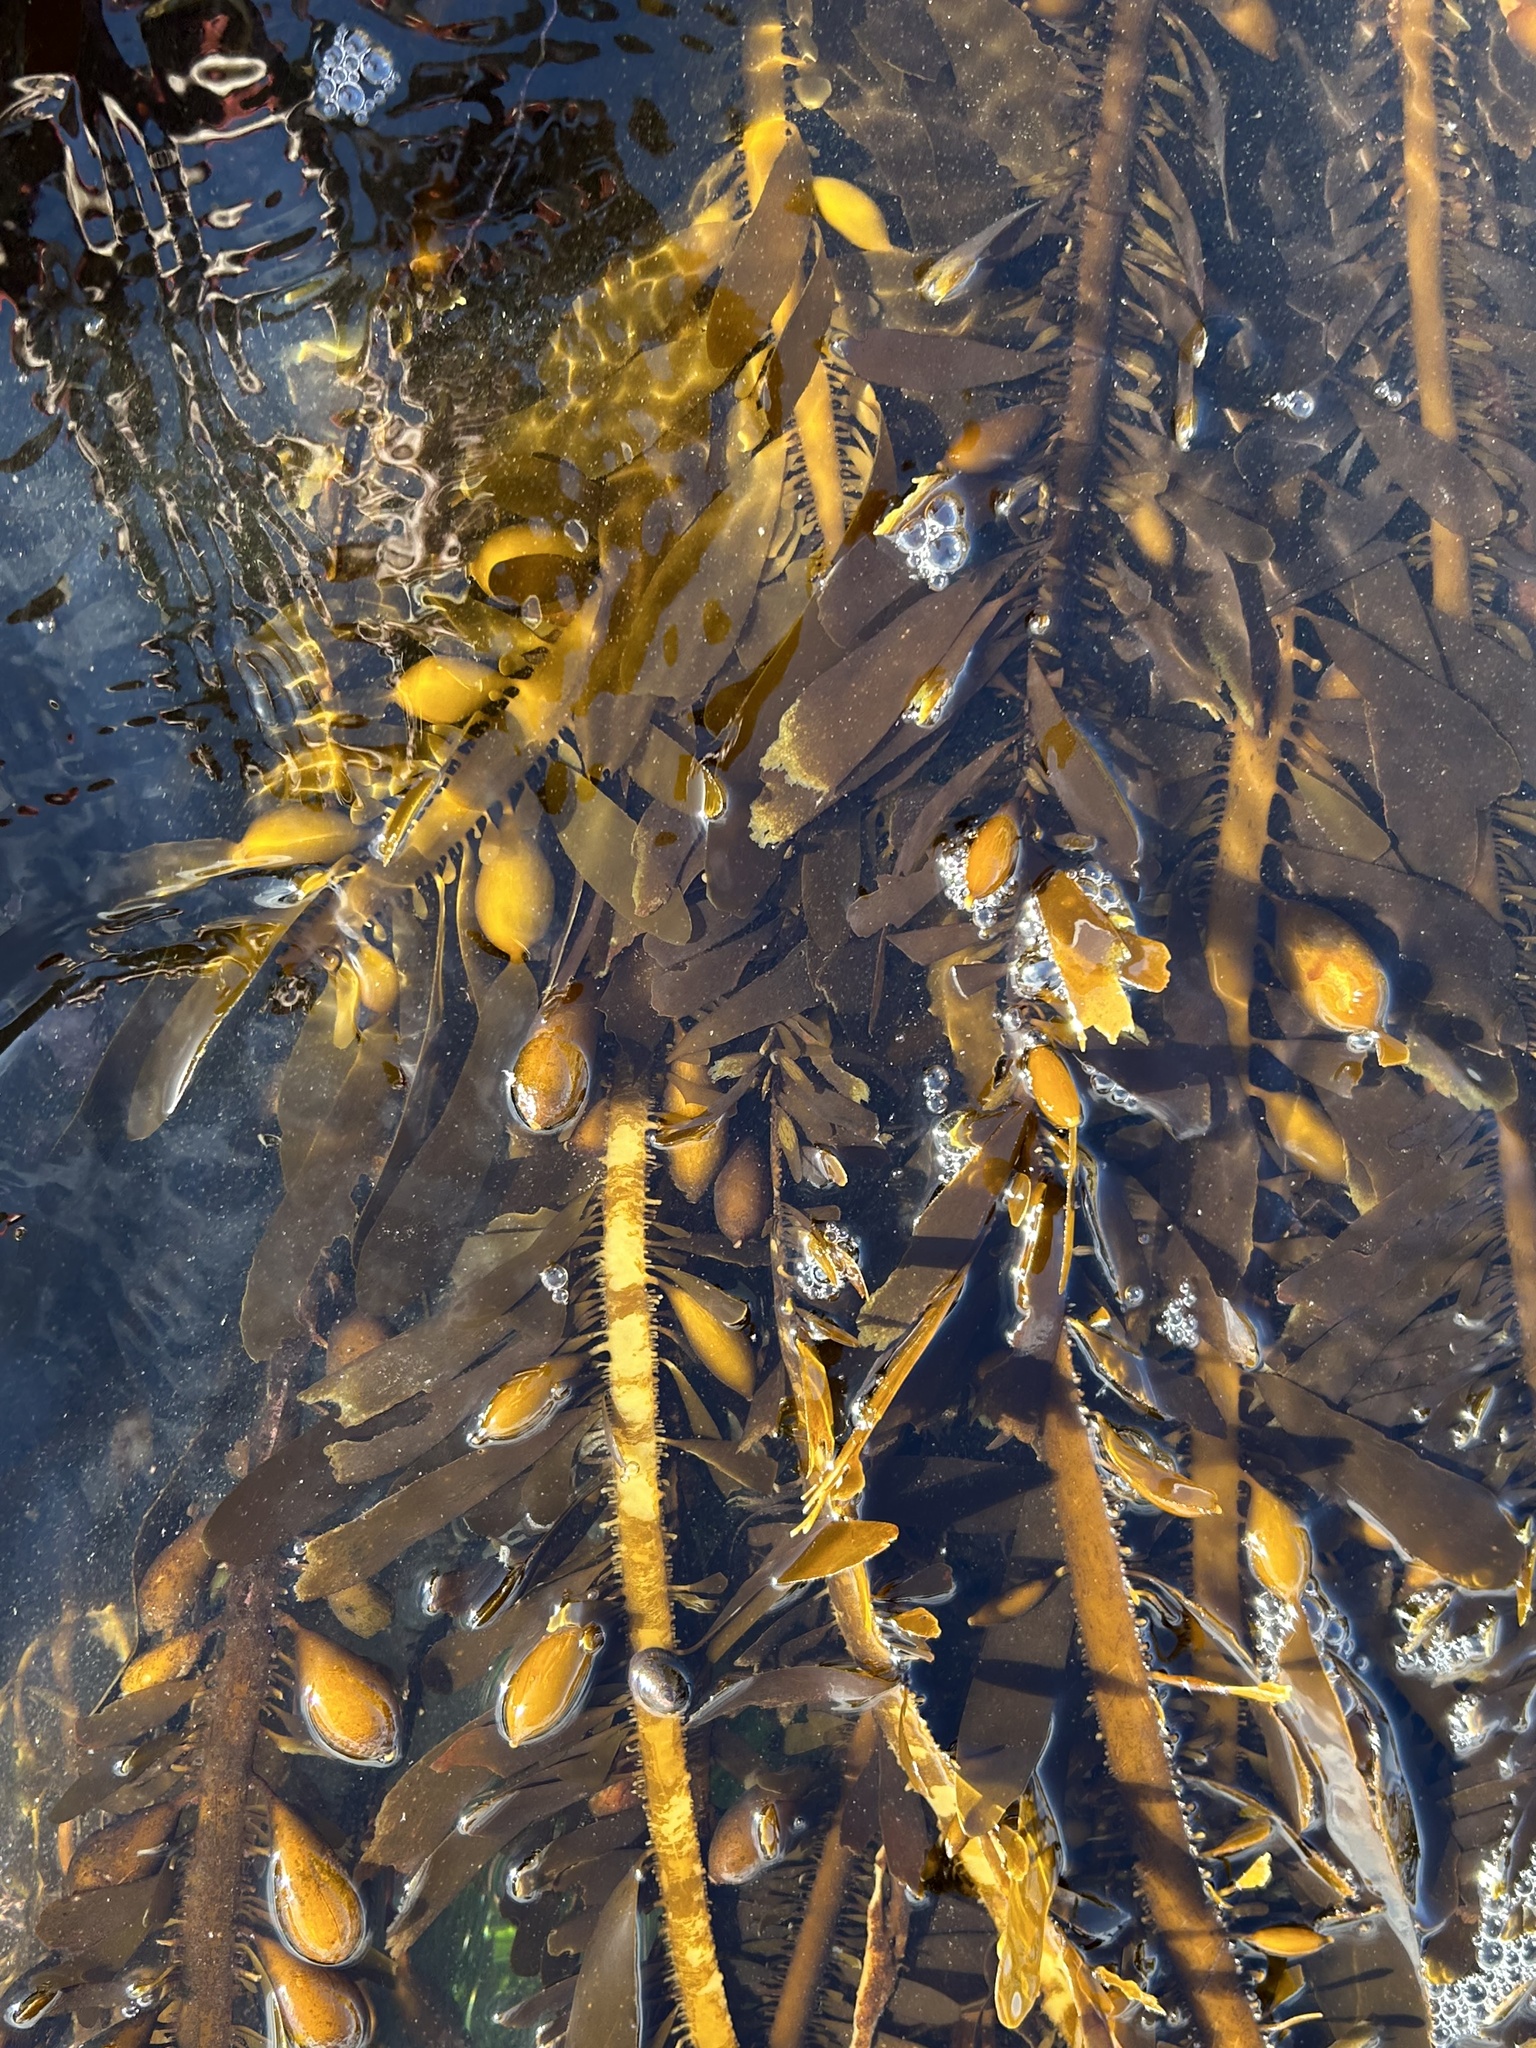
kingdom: Chromista
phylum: Ochrophyta
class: Phaeophyceae
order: Laminariales
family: Lessoniaceae
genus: Egregia
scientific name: Egregia menziesii
